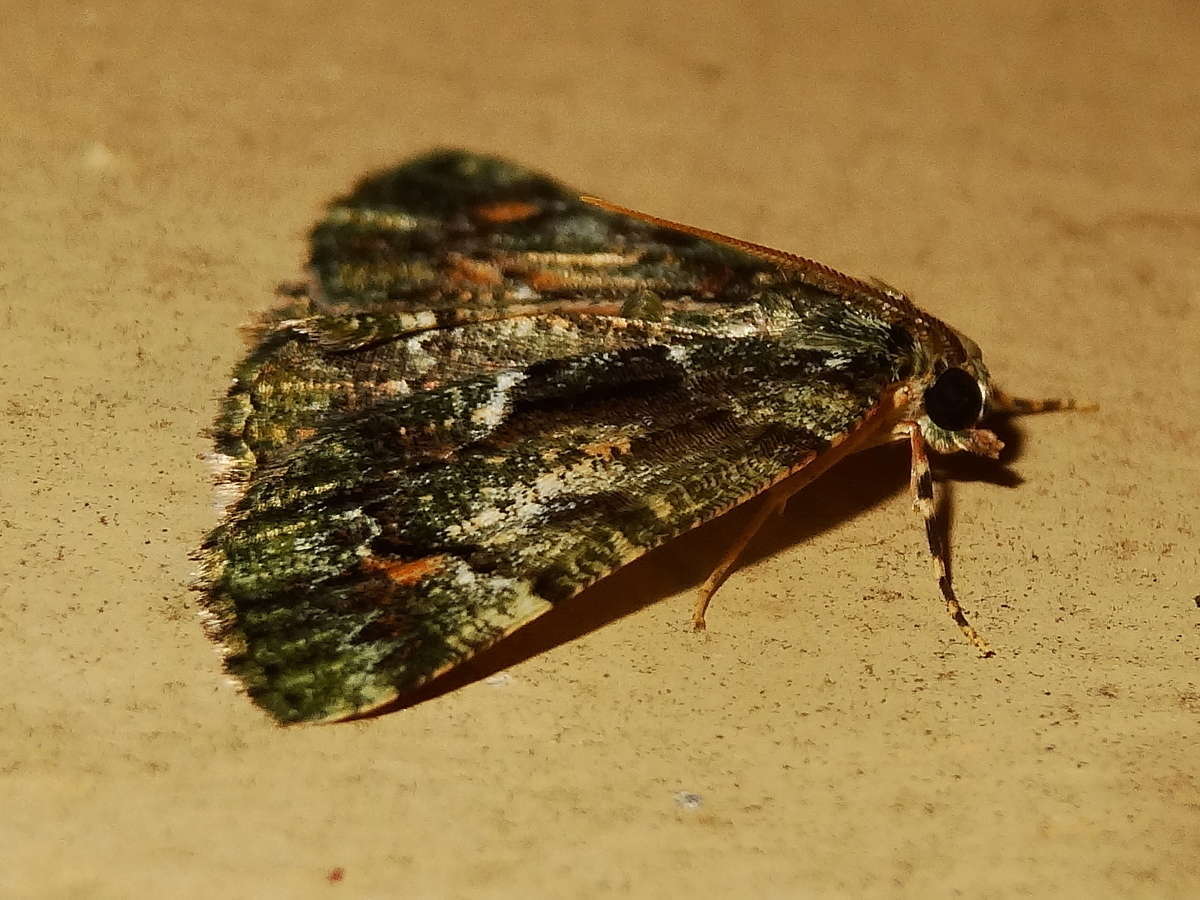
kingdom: Animalia
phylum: Arthropoda
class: Insecta
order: Lepidoptera
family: Geometridae
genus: Aeolochroma
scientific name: Aeolochroma metarhodata
